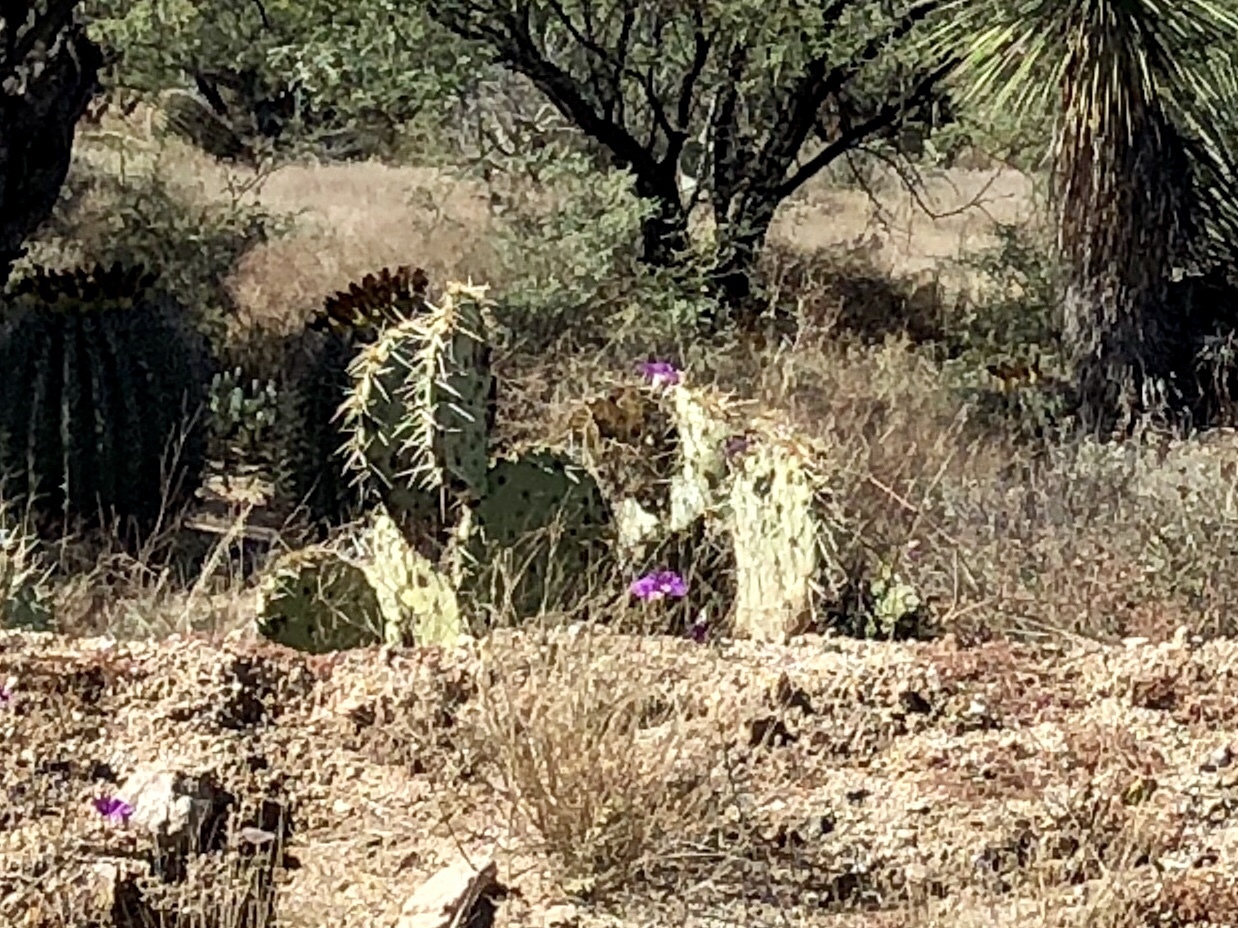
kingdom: Plantae
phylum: Tracheophyta
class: Magnoliopsida
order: Caryophyllales
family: Cactaceae
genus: Opuntia
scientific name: Opuntia engelmannii
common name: Cactus-apple
